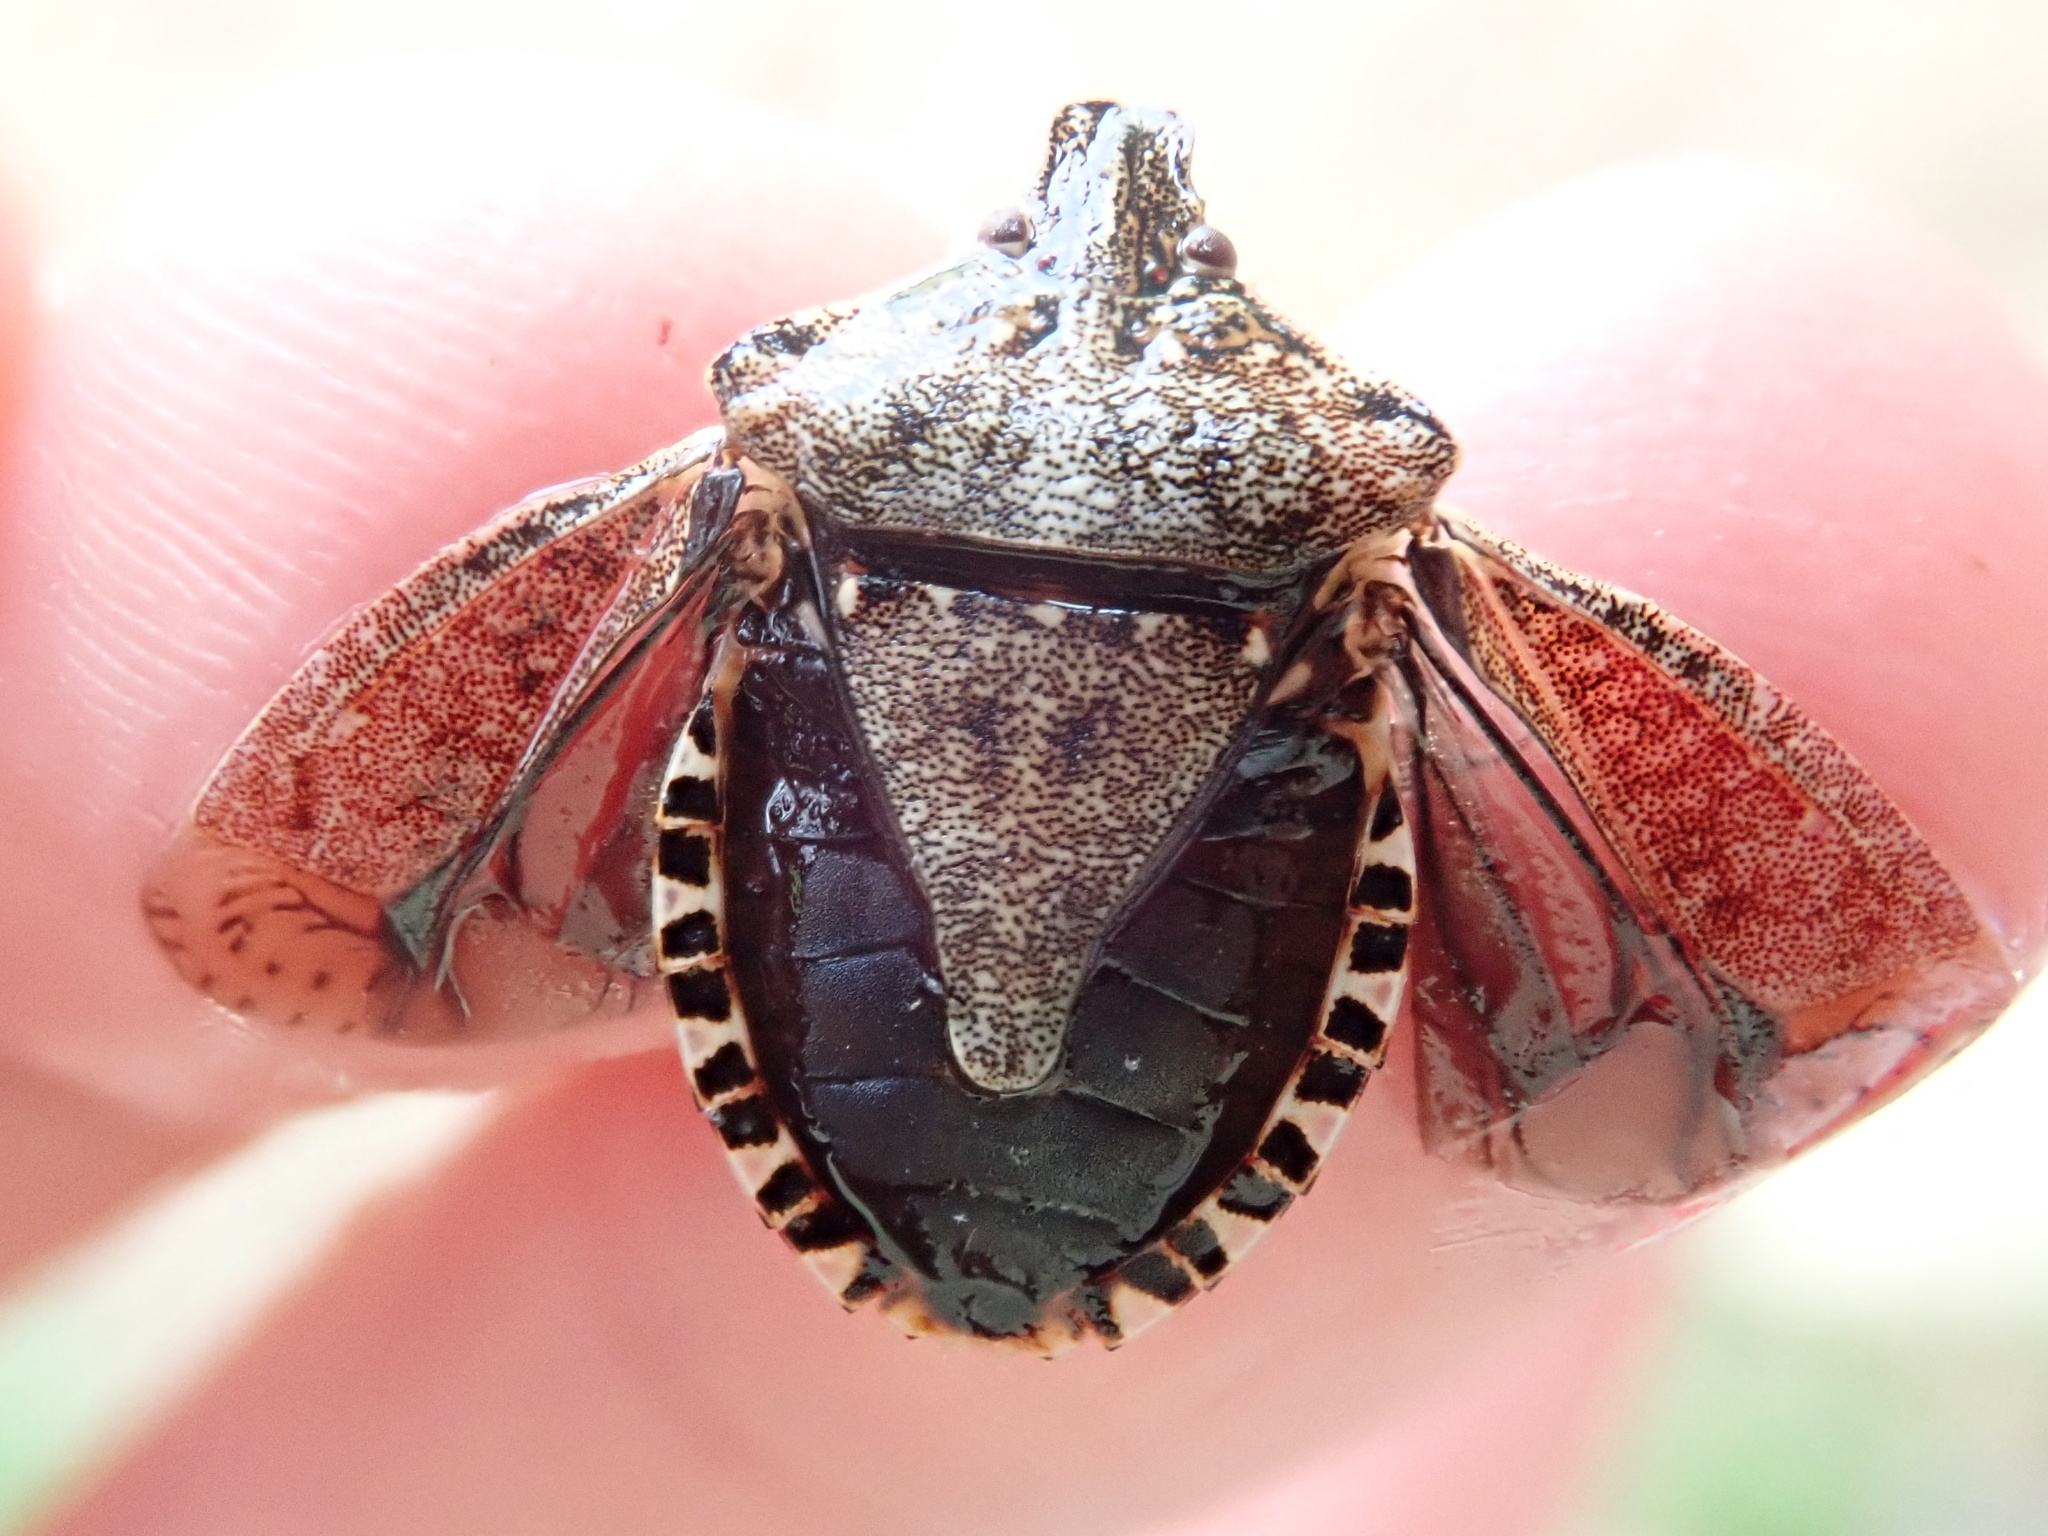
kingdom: Animalia
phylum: Arthropoda
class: Insecta
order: Hemiptera
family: Pentatomidae
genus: Halyomorpha
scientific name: Halyomorpha halys
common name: Brown marmorated stink bug
